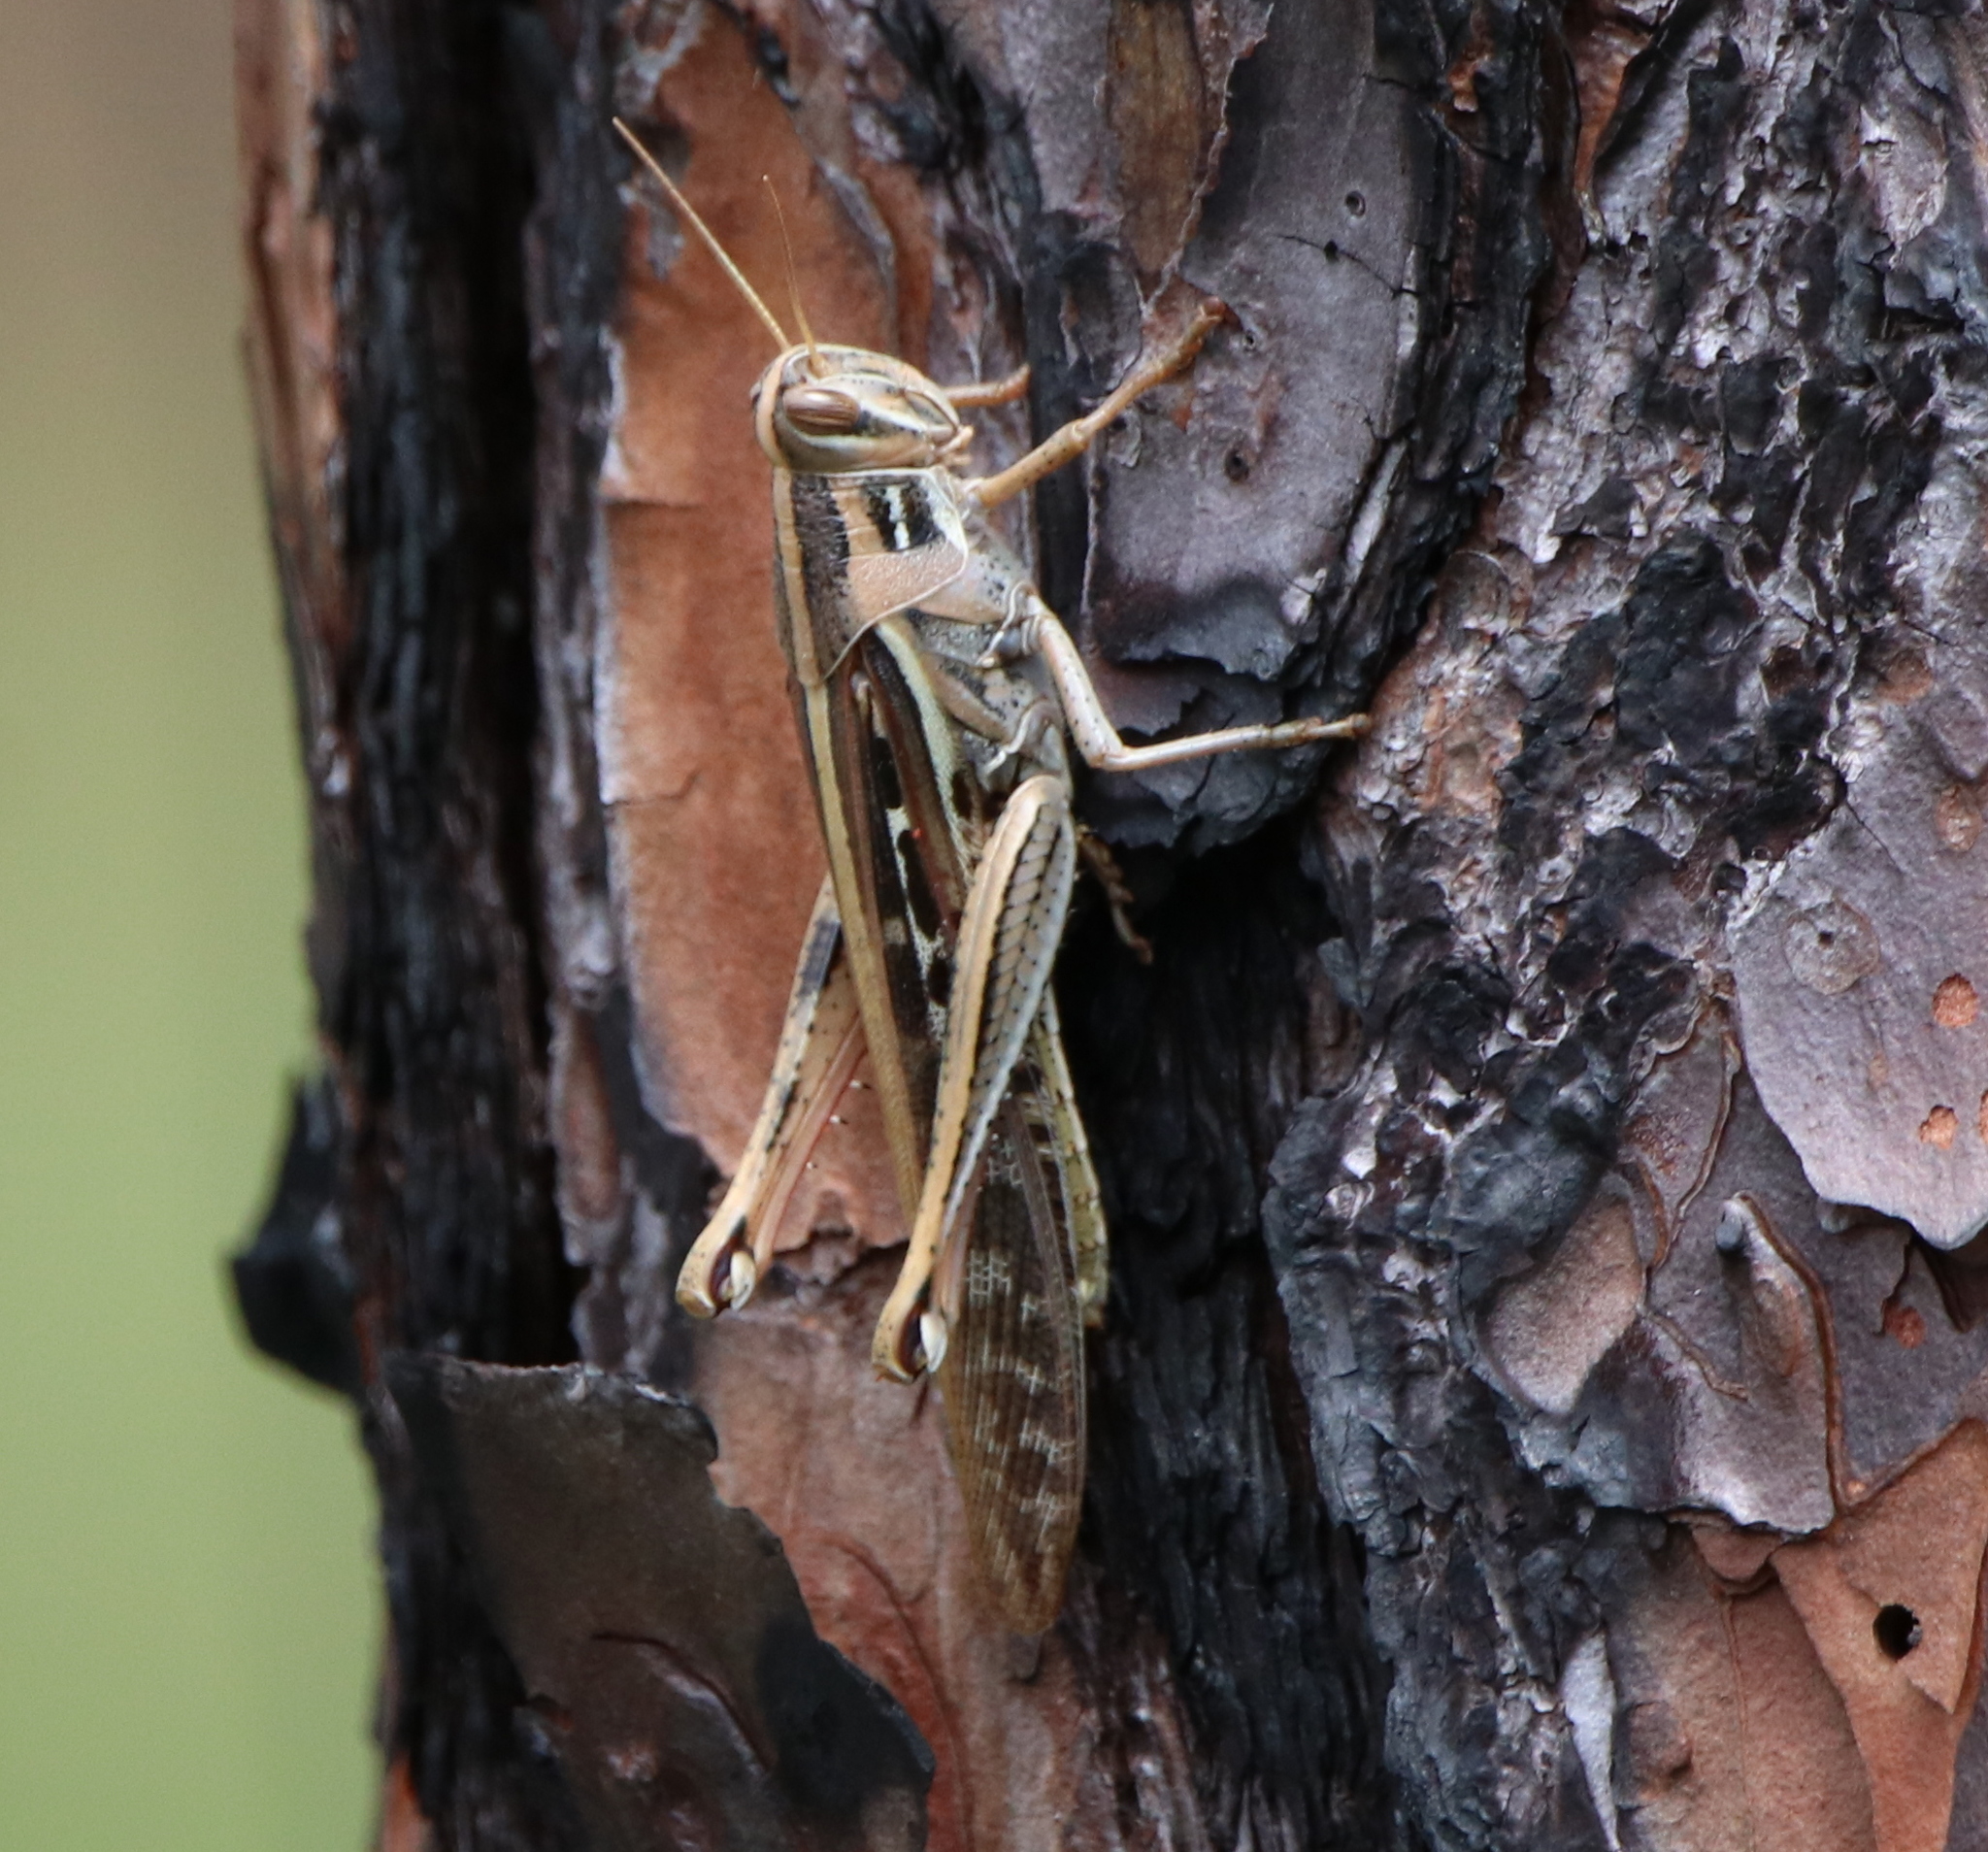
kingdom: Animalia
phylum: Arthropoda
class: Insecta
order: Orthoptera
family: Acrididae
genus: Schistocerca
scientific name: Schistocerca americana
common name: American bird locust
